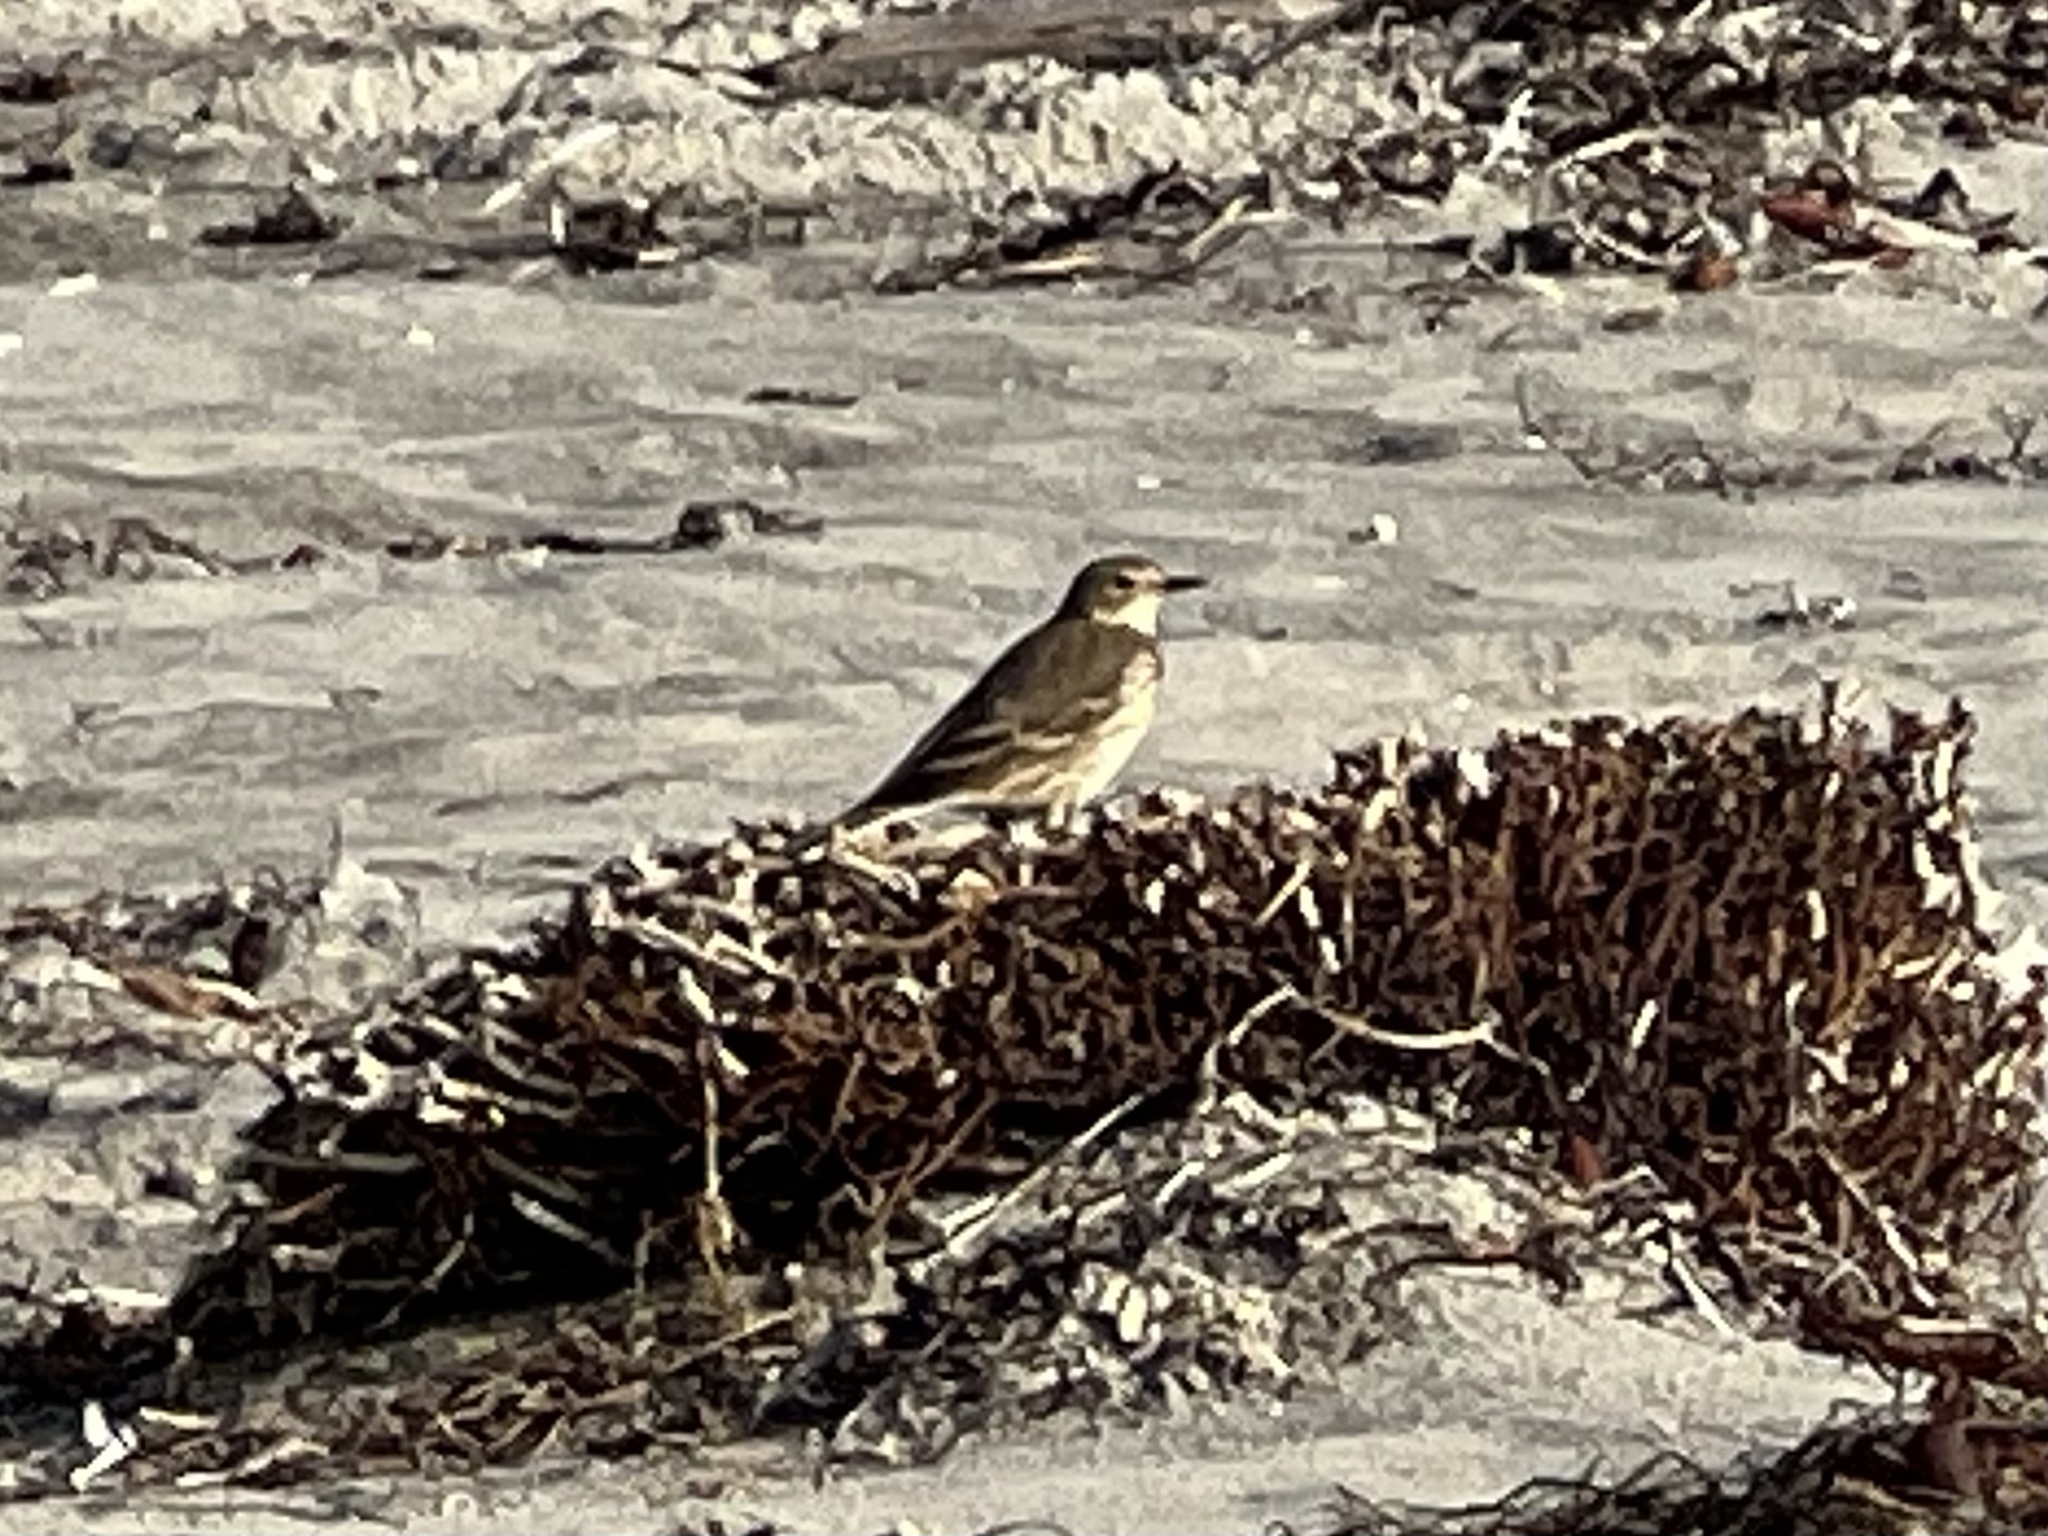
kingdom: Animalia
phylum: Chordata
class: Aves
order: Passeriformes
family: Motacillidae
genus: Anthus
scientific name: Anthus rubescens
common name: Buff-bellied pipit
